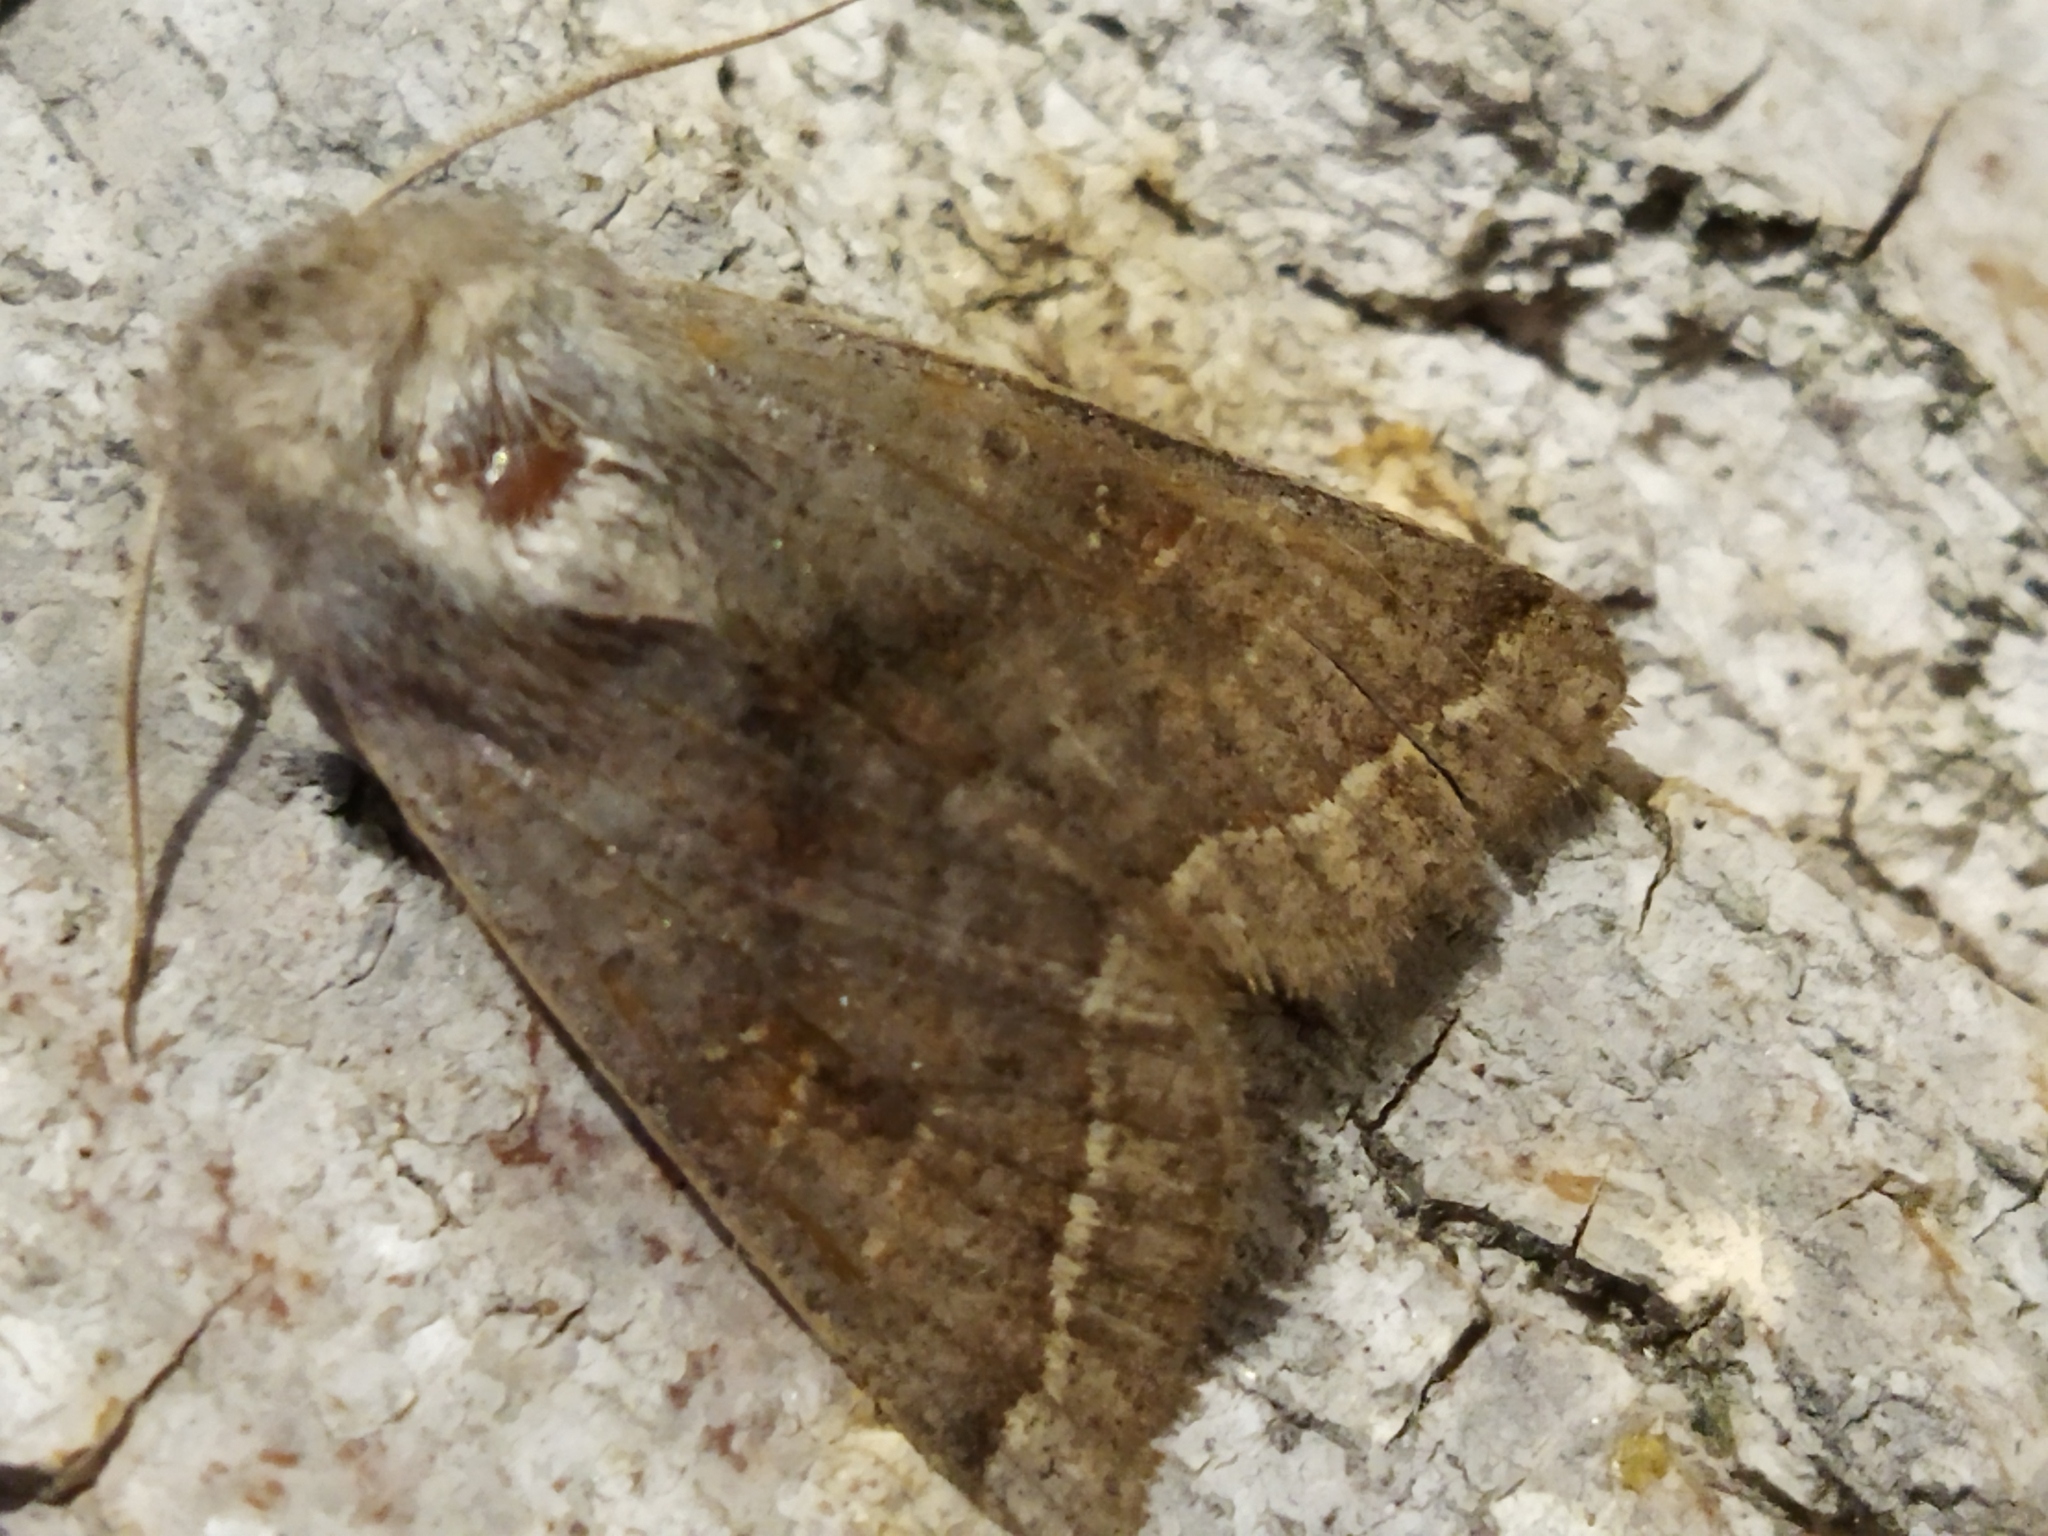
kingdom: Animalia
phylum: Arthropoda
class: Insecta
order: Lepidoptera
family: Noctuidae
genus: Orthosia
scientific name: Orthosia opima
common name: Northern drab
